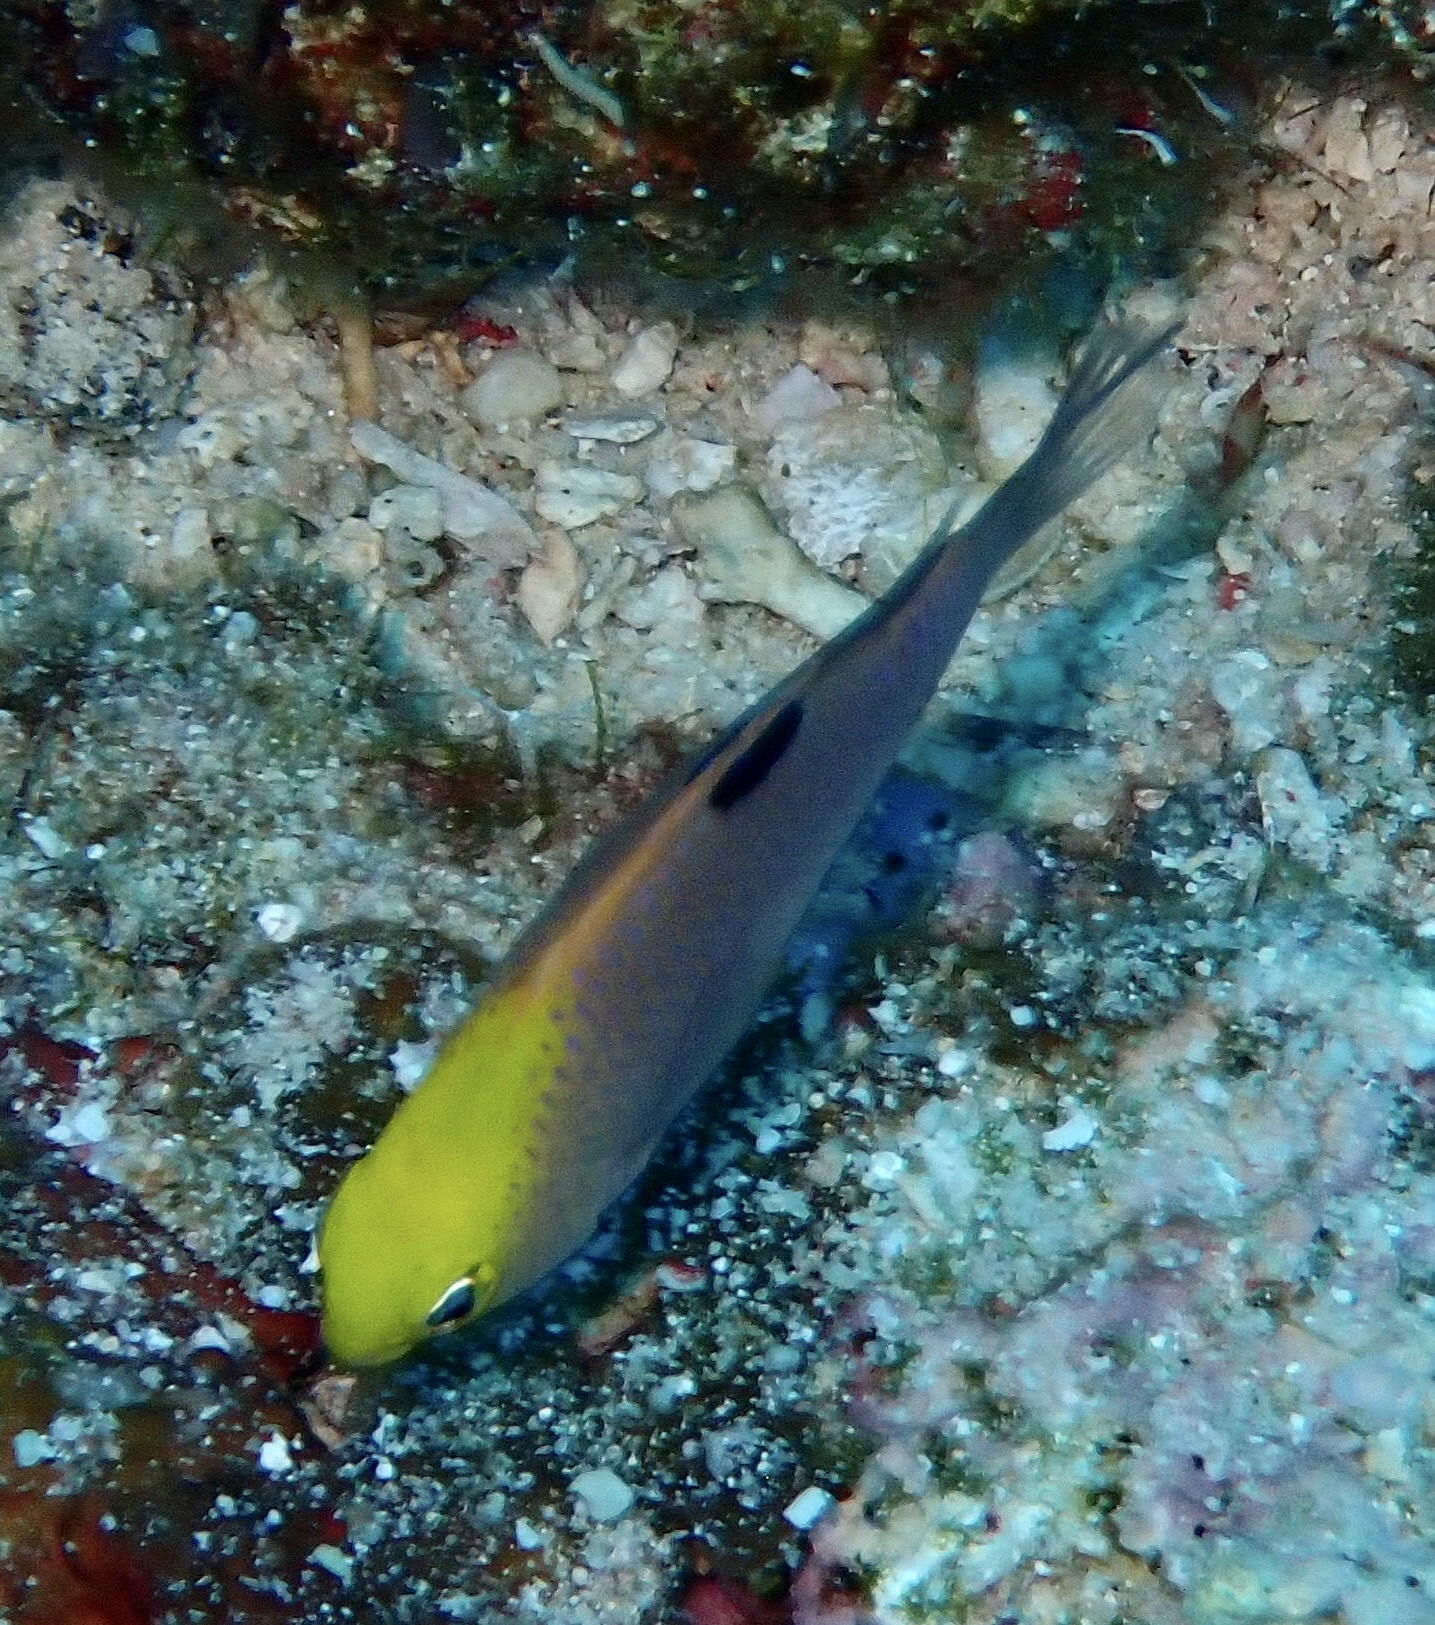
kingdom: Animalia
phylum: Chordata
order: Perciformes
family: Pomacentridae
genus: Chrysiptera
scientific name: Chrysiptera talboti
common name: Talbot's demoiselle
